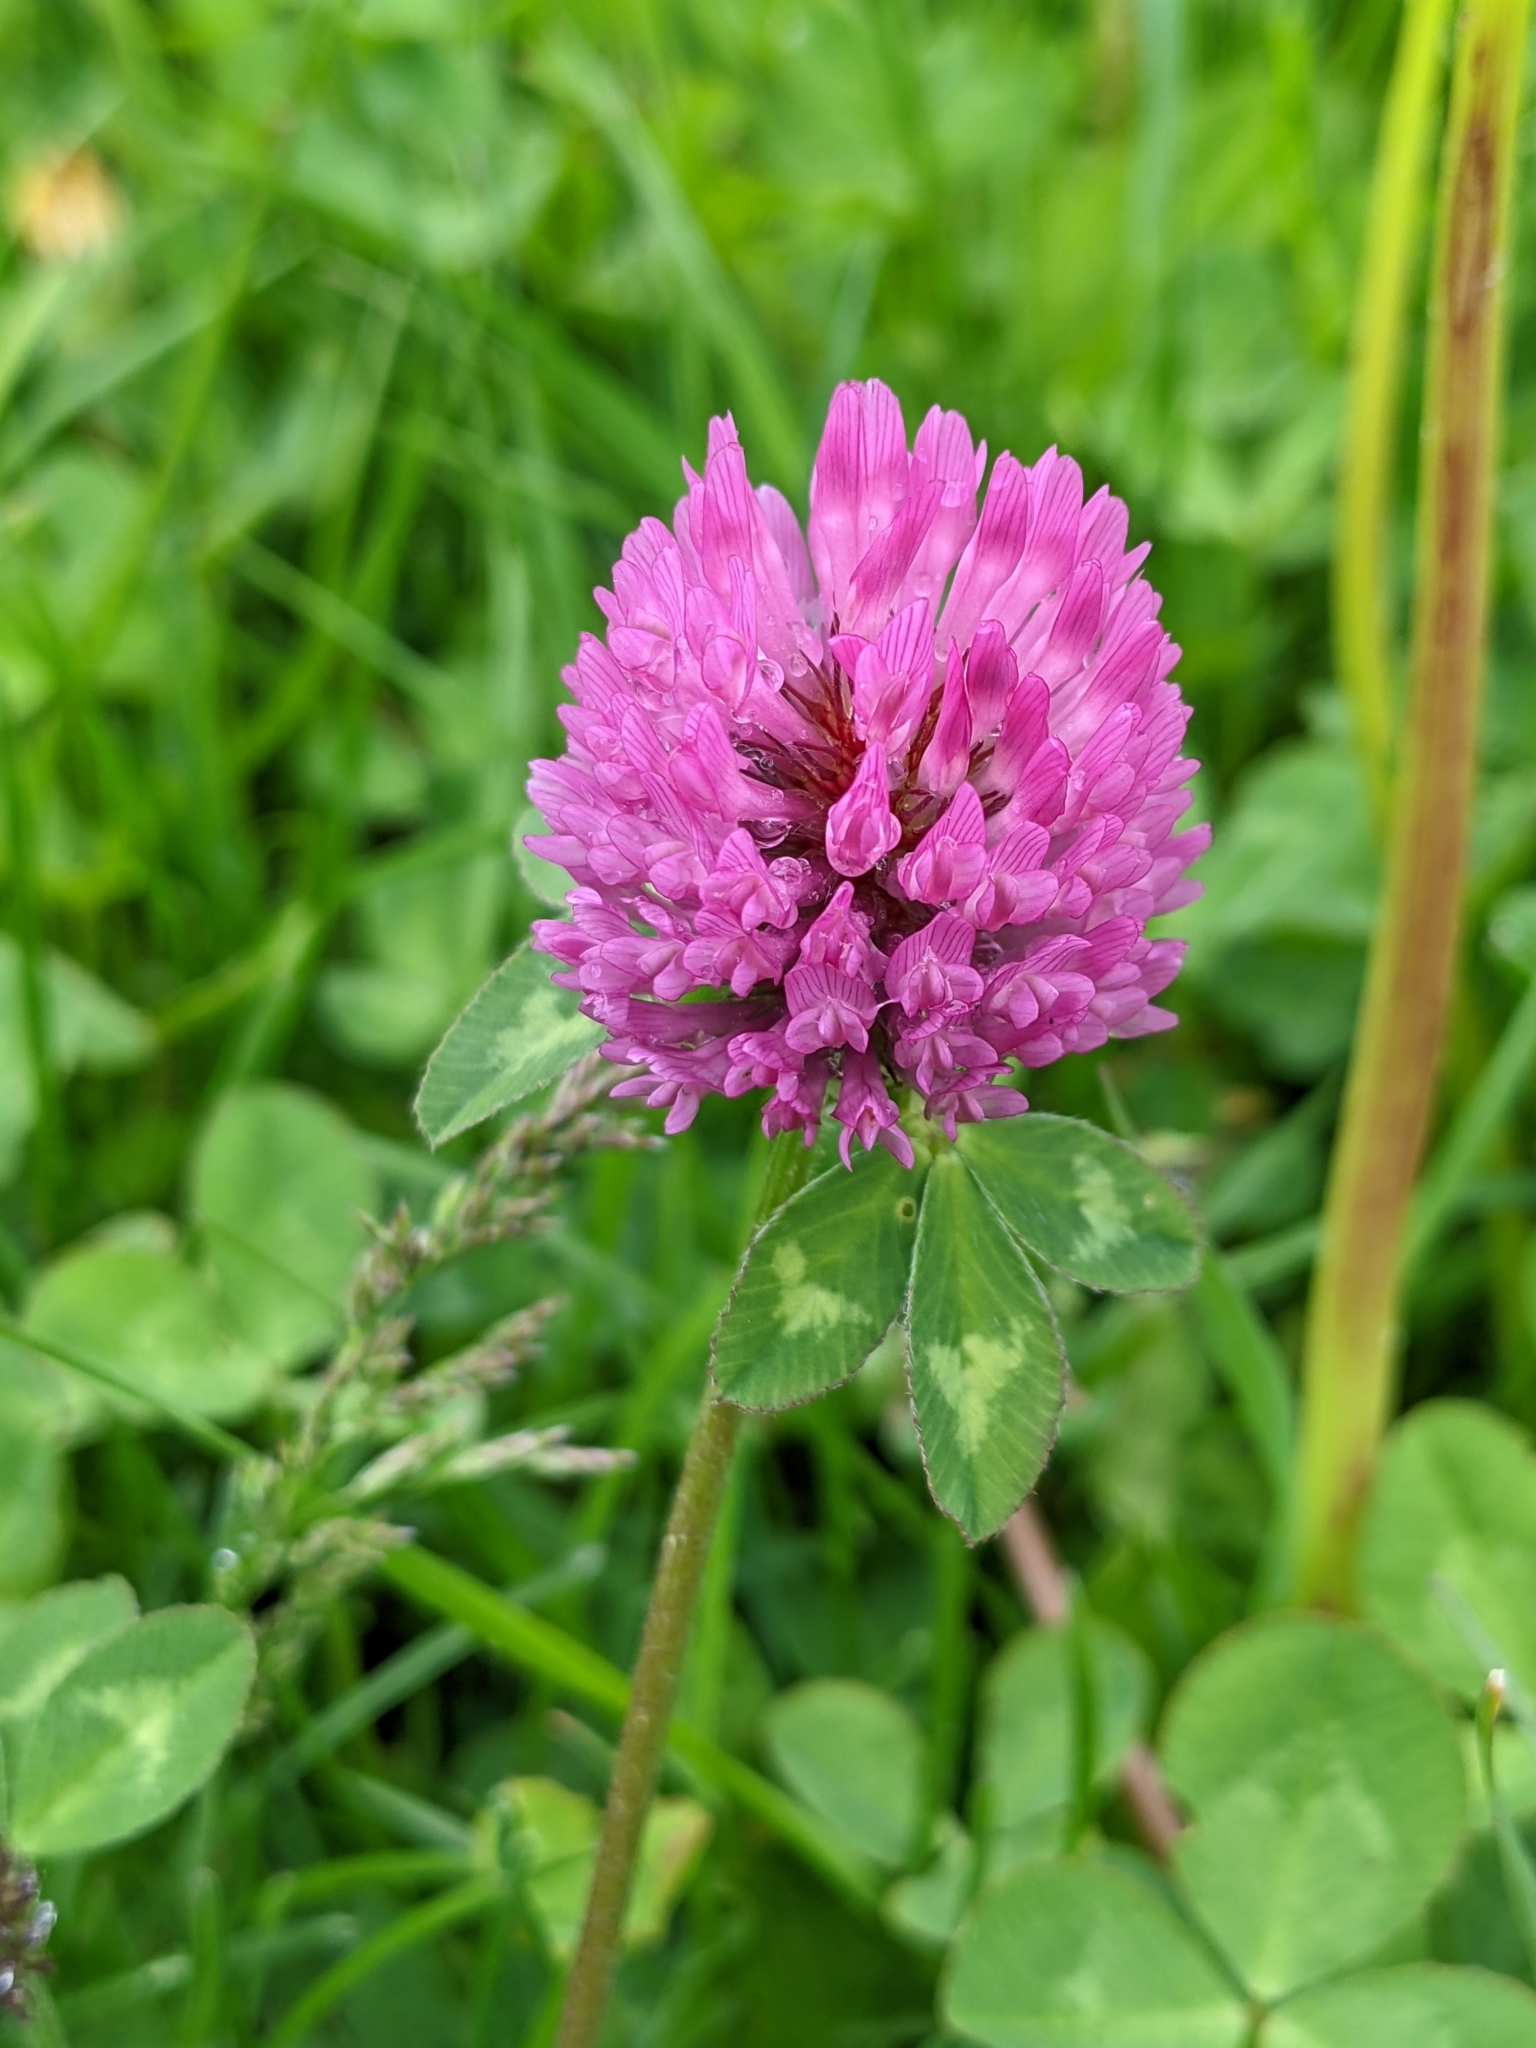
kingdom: Plantae
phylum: Tracheophyta
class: Magnoliopsida
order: Fabales
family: Fabaceae
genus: Trifolium
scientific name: Trifolium pratense
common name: Red clover
